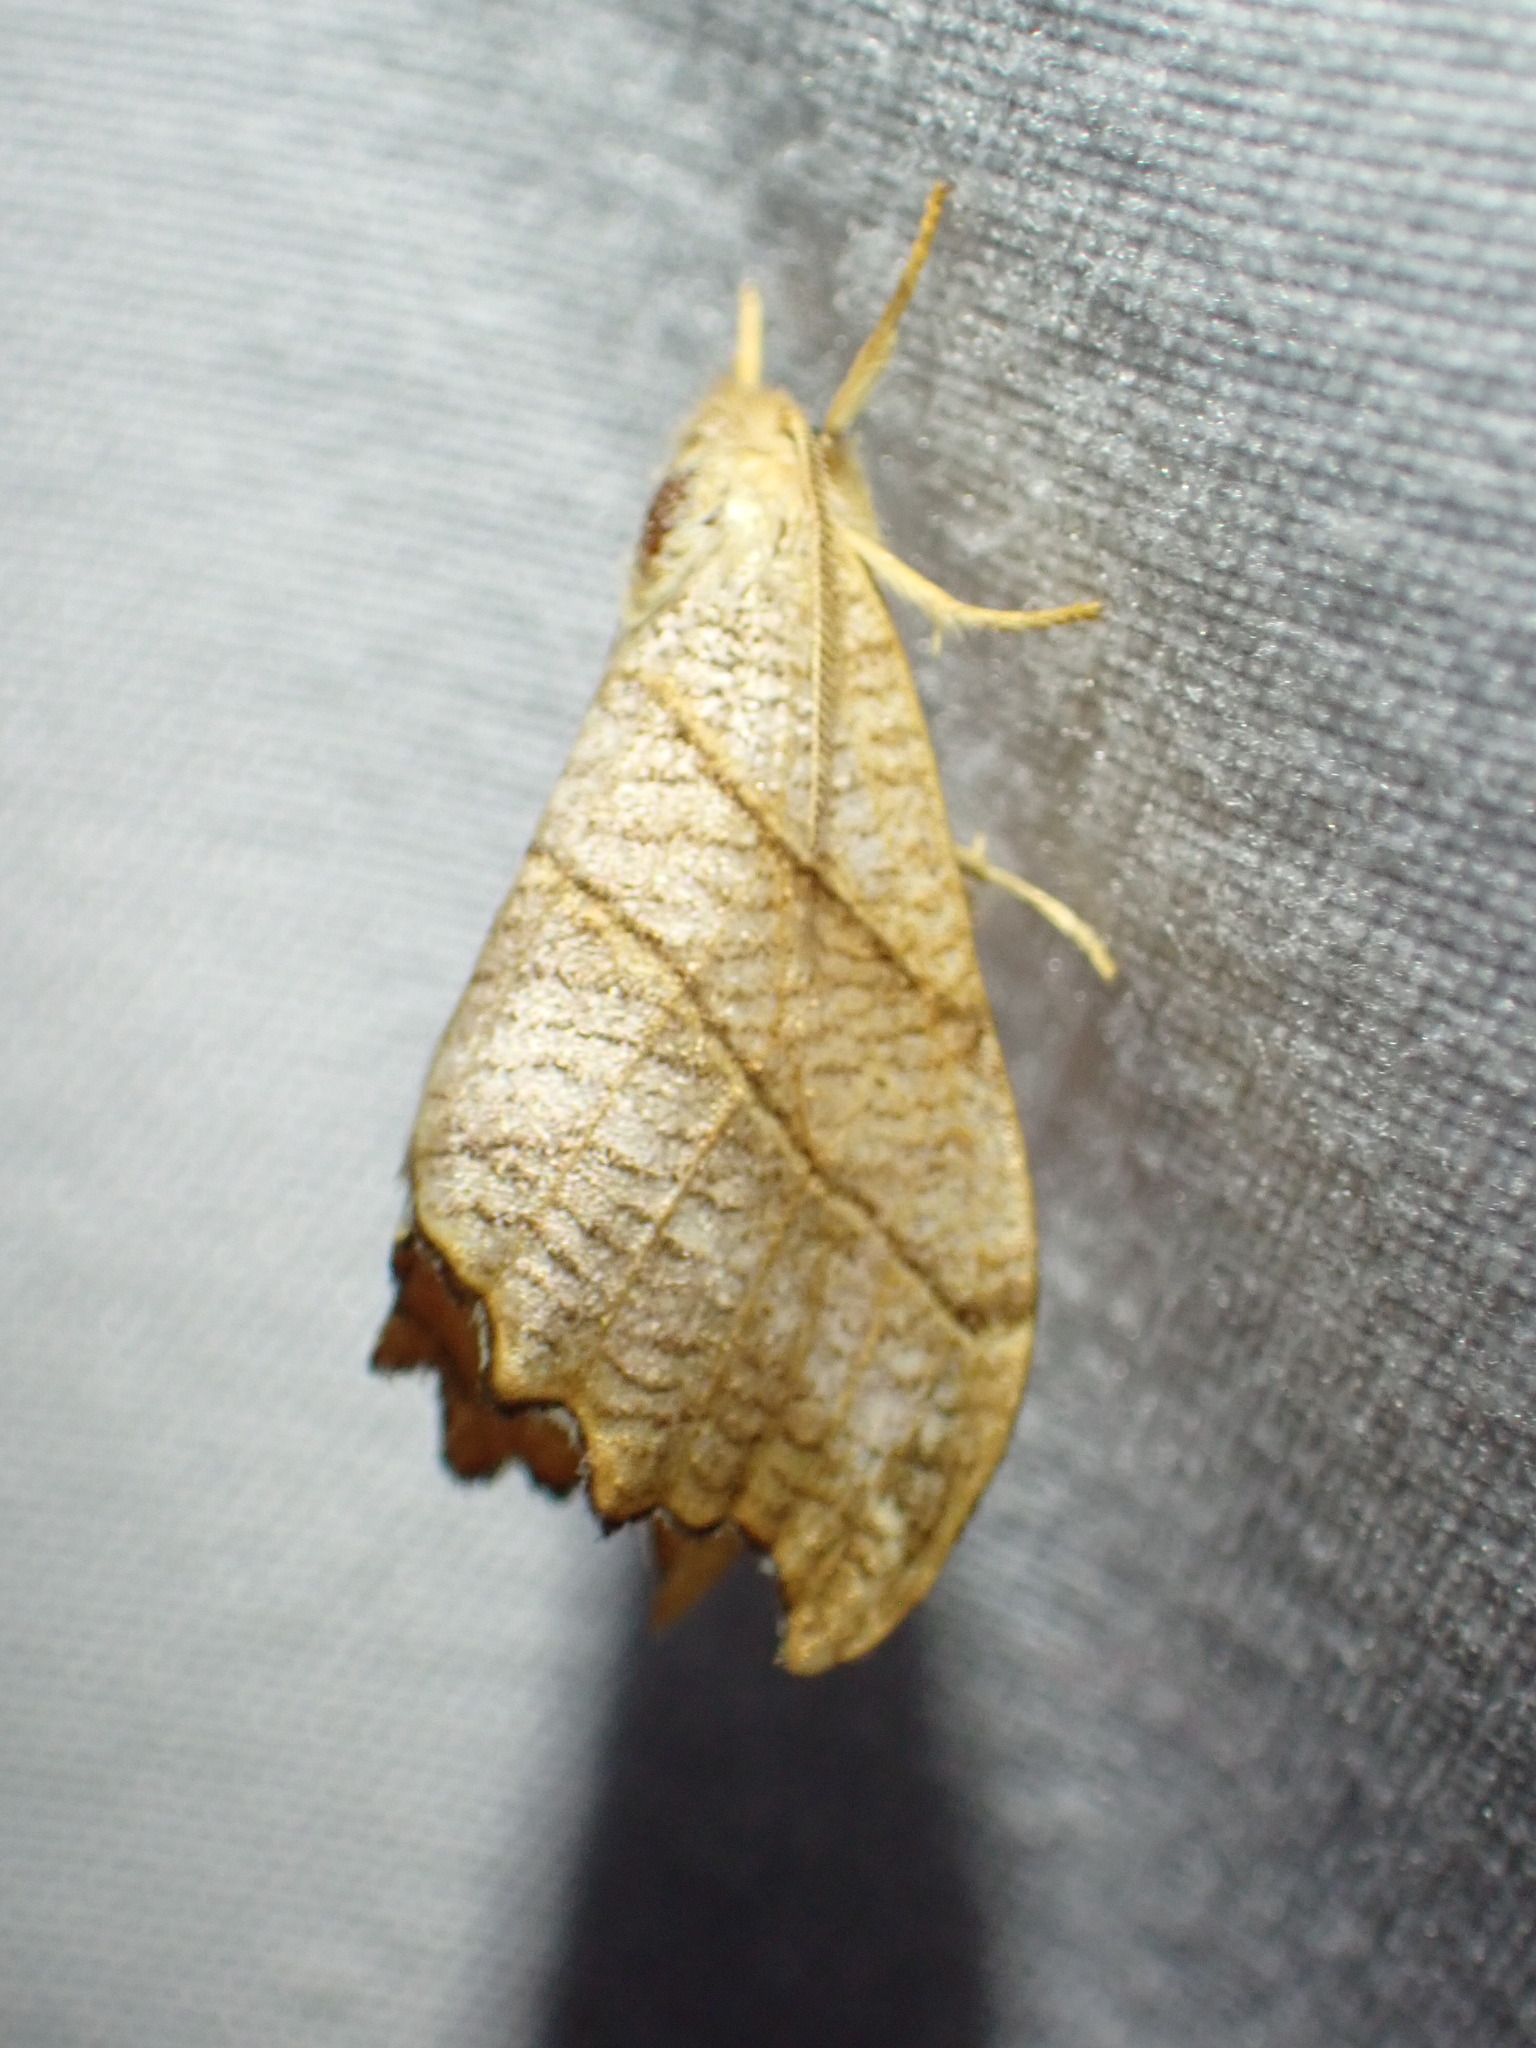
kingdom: Animalia
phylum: Arthropoda
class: Insecta
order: Lepidoptera
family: Drepanidae
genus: Falcaria
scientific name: Falcaria bilineata
